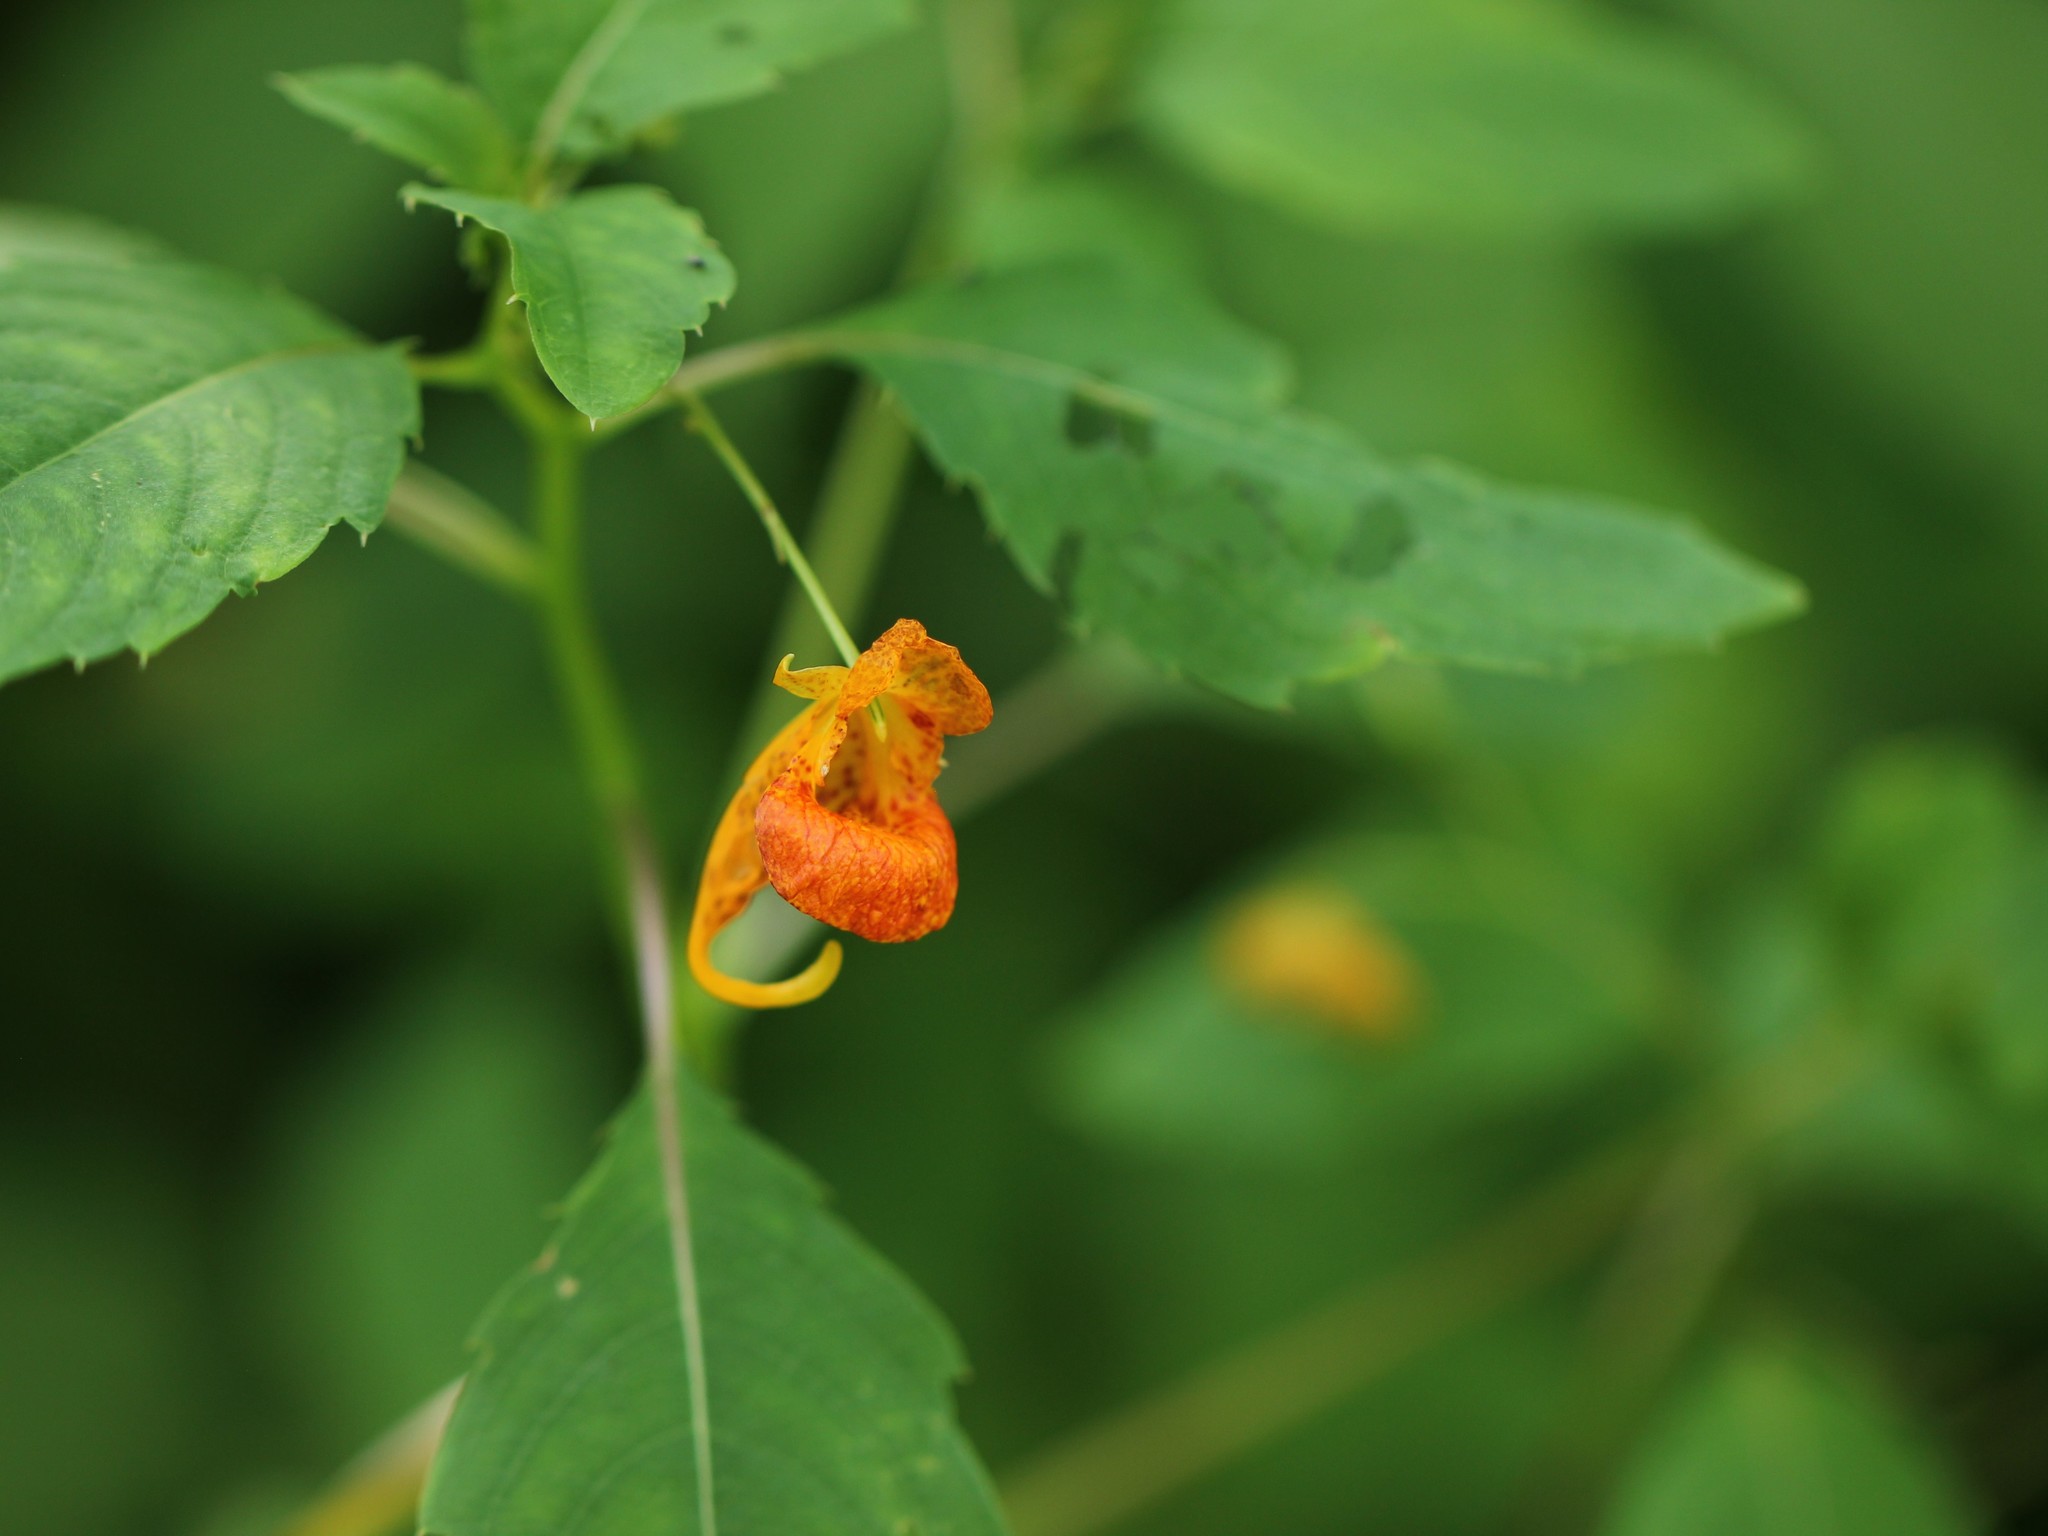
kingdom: Plantae
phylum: Tracheophyta
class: Magnoliopsida
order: Ericales
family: Balsaminaceae
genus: Impatiens
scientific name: Impatiens capensis
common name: Orange balsam
